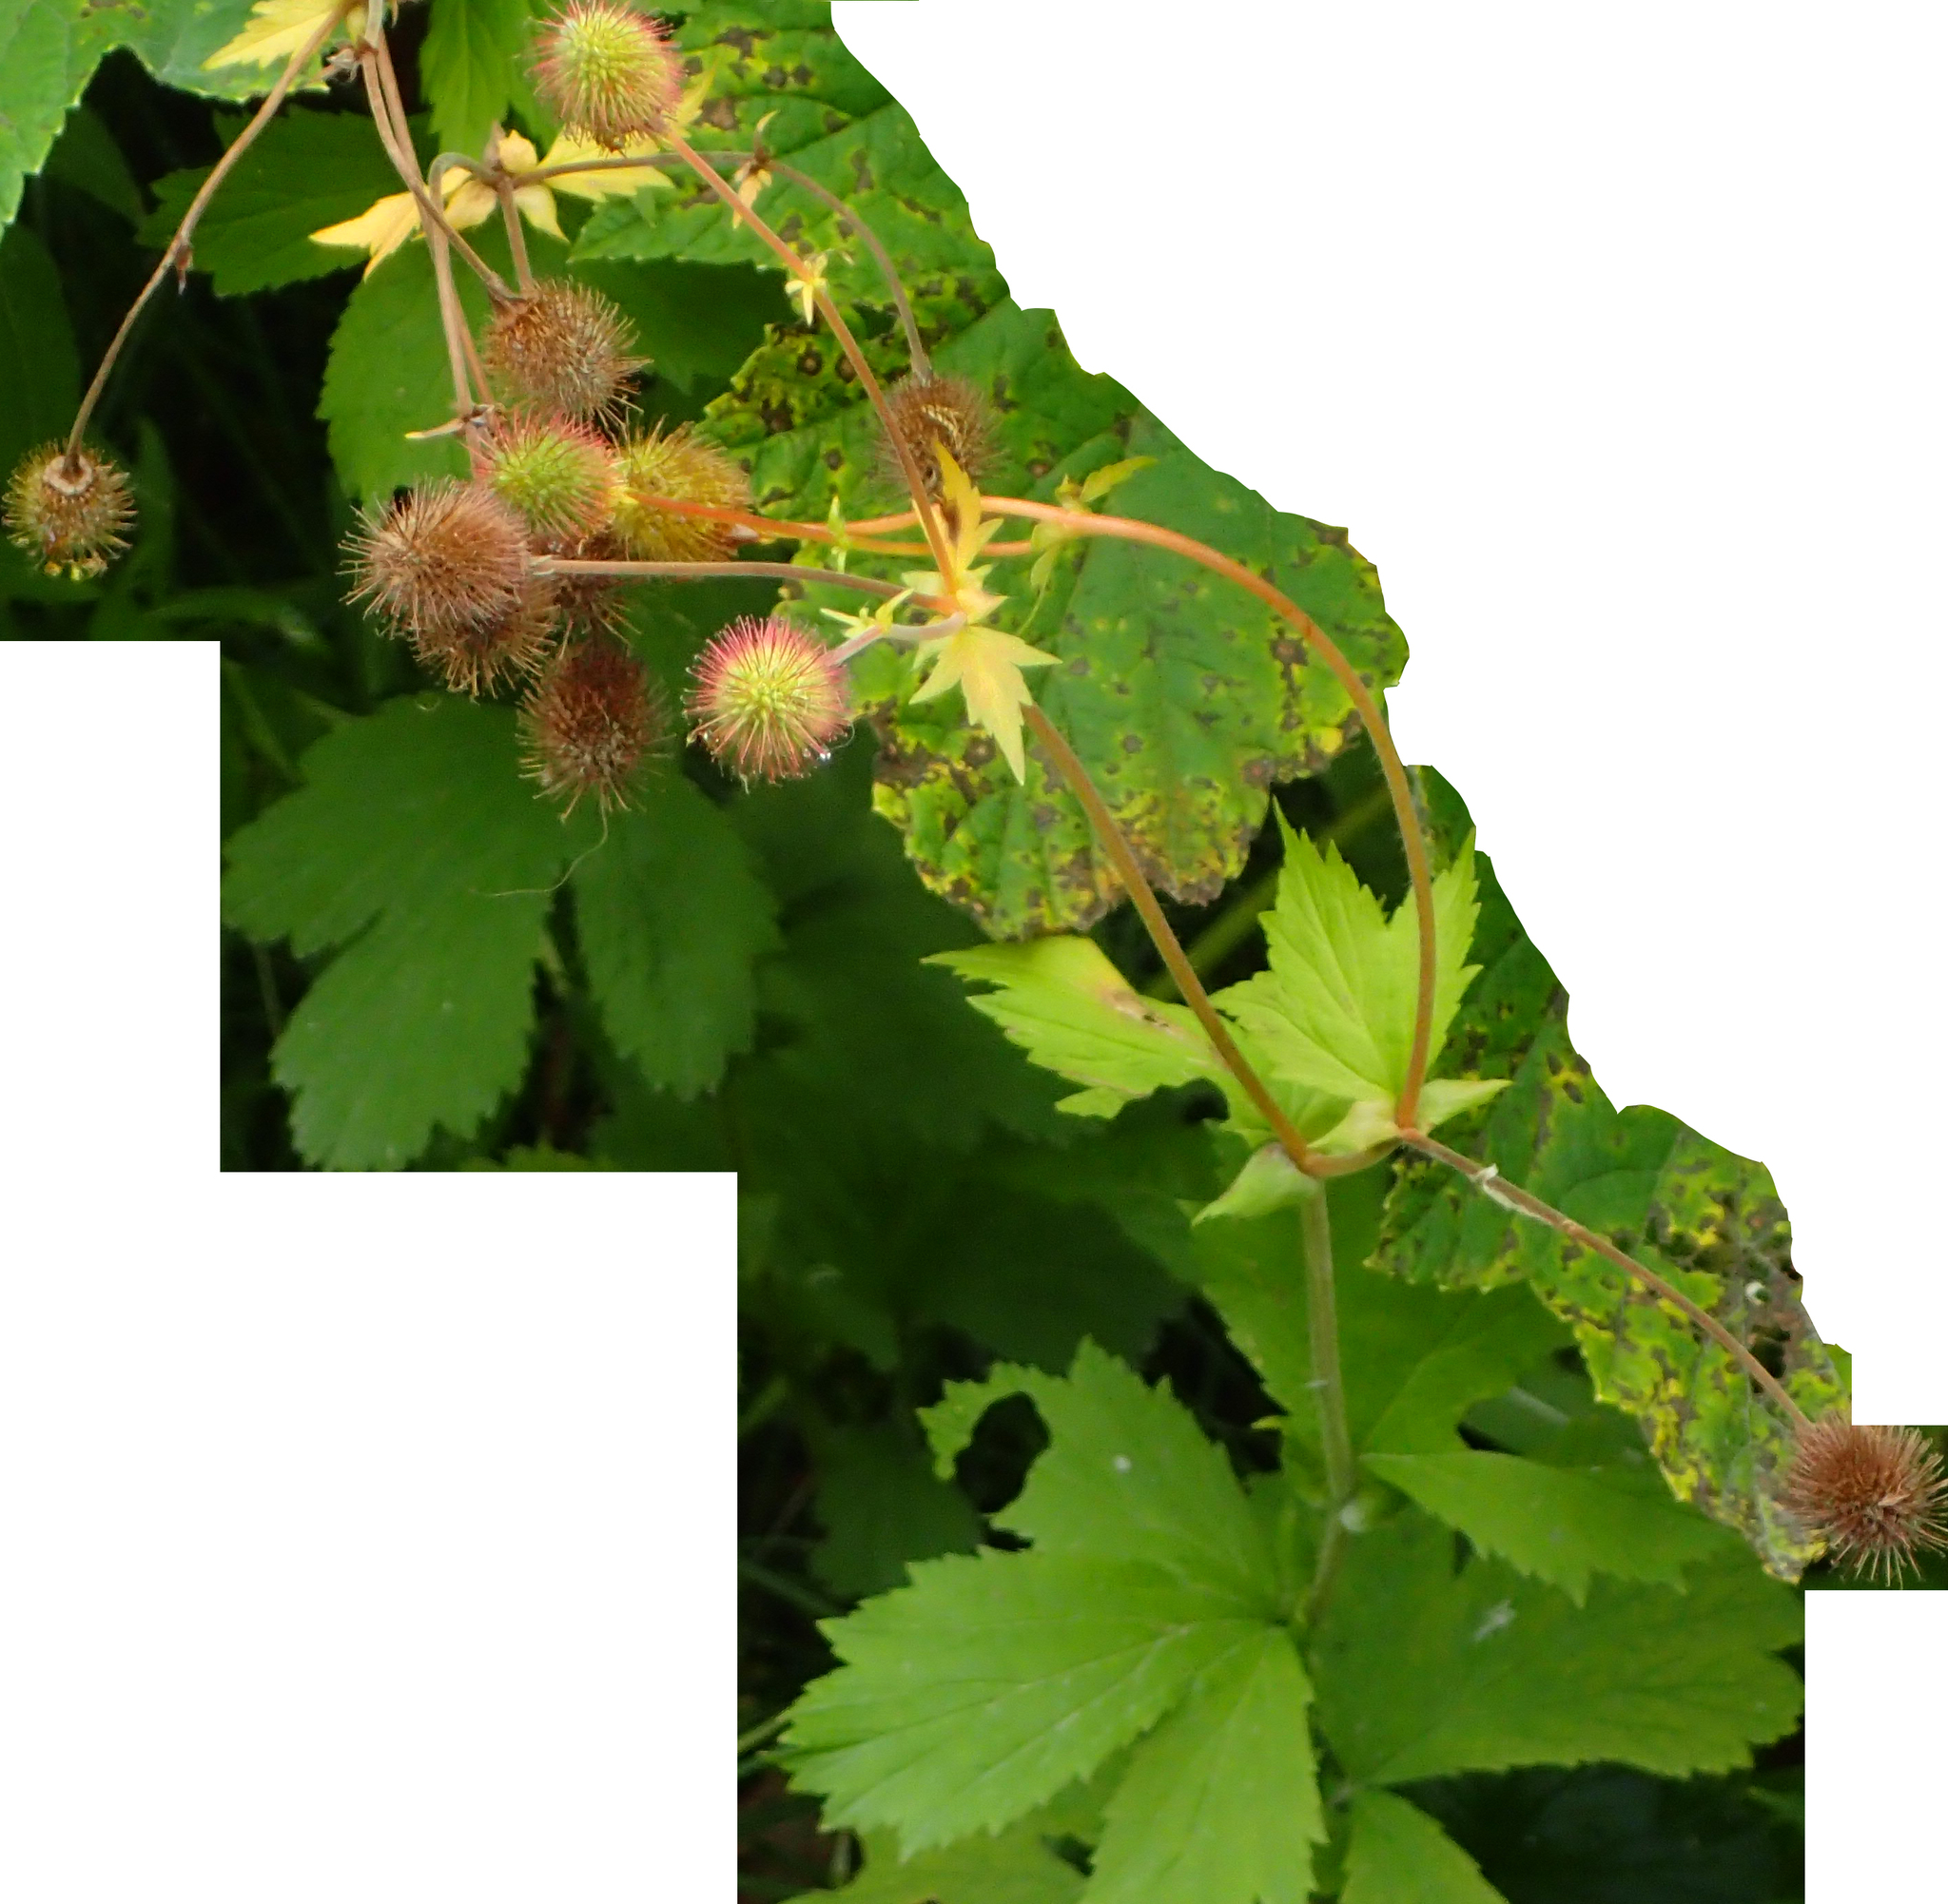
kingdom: Plantae
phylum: Tracheophyta
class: Magnoliopsida
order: Rosales
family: Rosaceae
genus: Geum
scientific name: Geum macrophyllum
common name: Large-leaved avens
